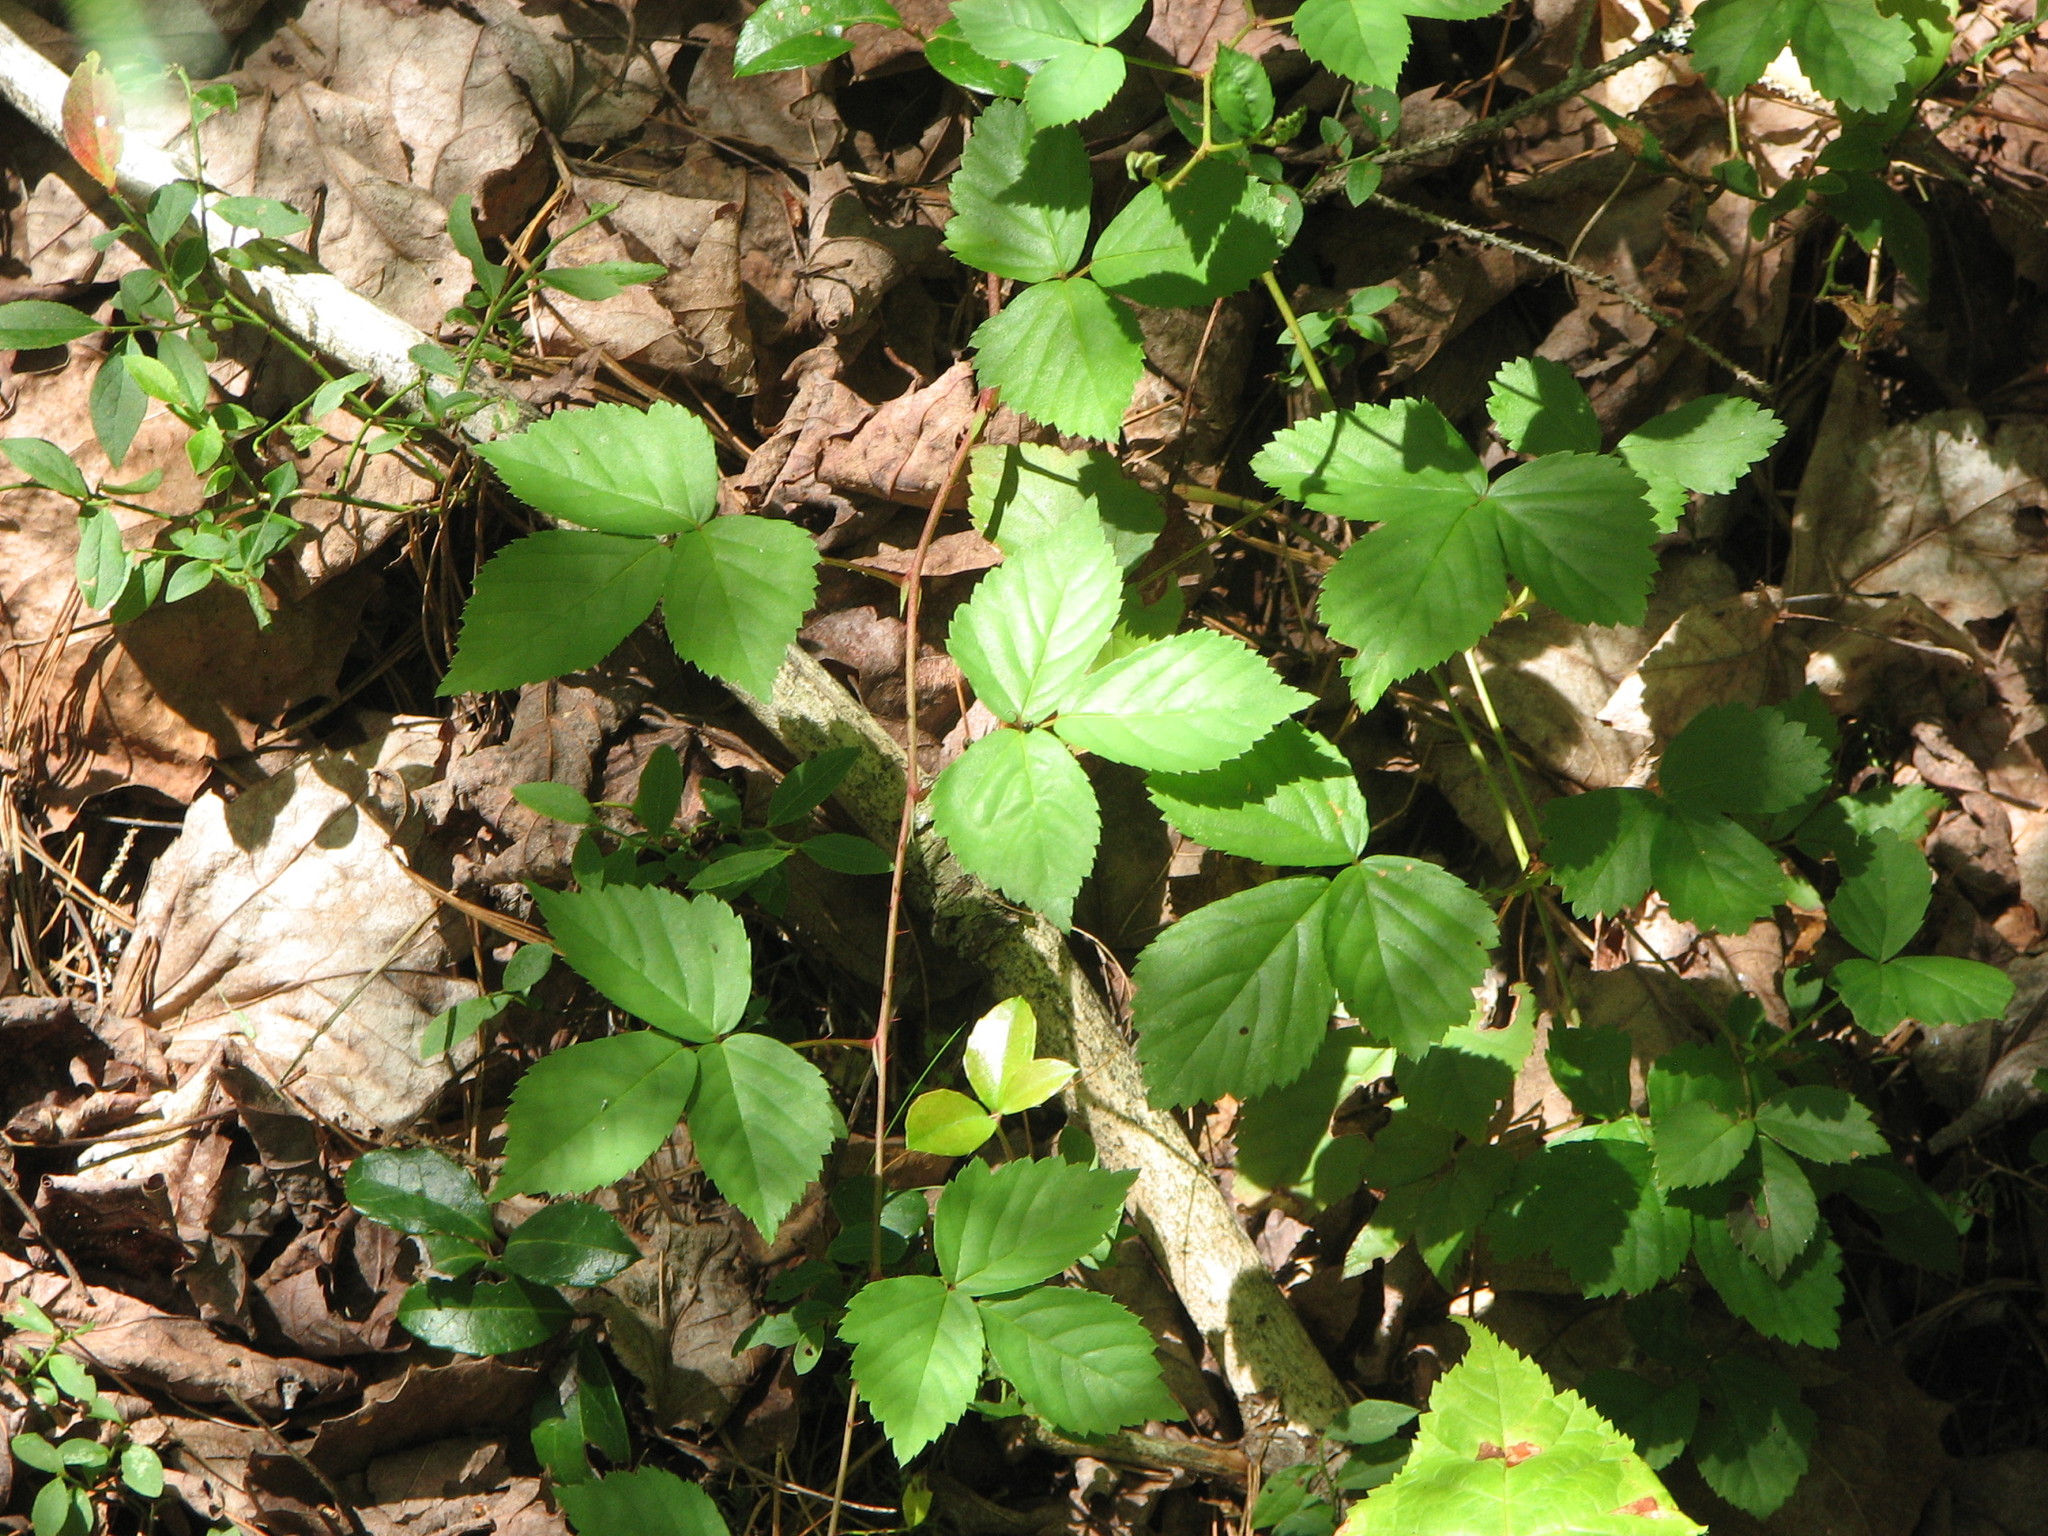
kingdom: Plantae
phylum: Tracheophyta
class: Magnoliopsida
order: Rosales
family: Rosaceae
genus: Rubus
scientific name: Rubus hispidus
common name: Running blackberry
